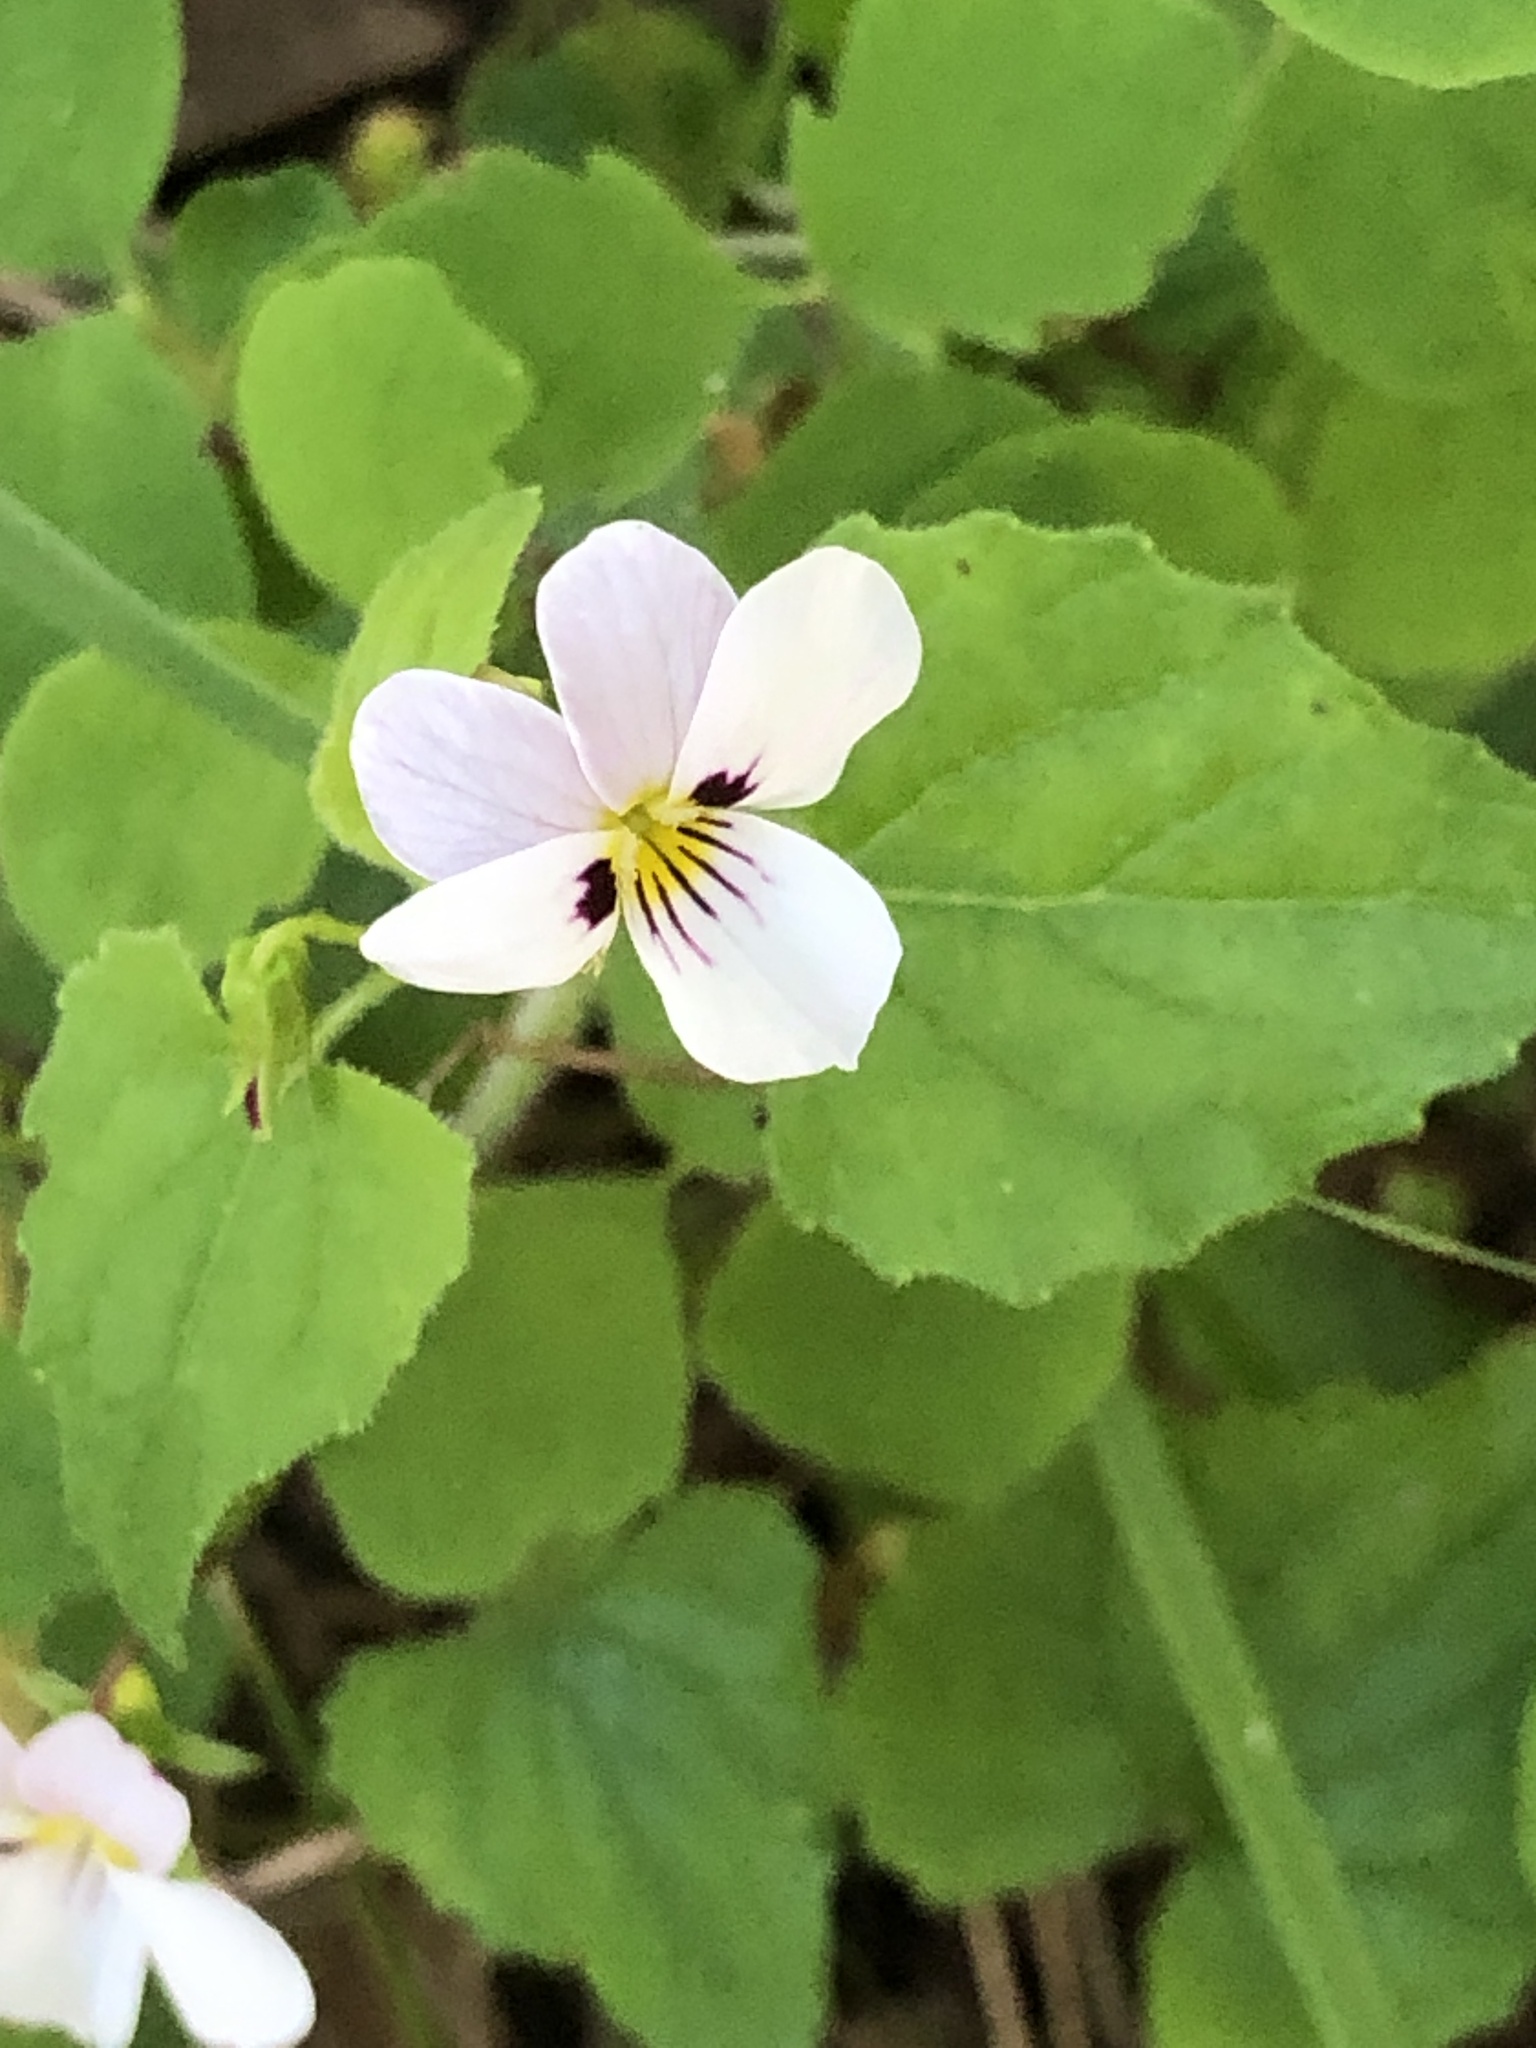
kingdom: Plantae
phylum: Tracheophyta
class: Magnoliopsida
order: Malpighiales
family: Violaceae
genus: Viola
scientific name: Viola ocellata
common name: Western heart's ease
